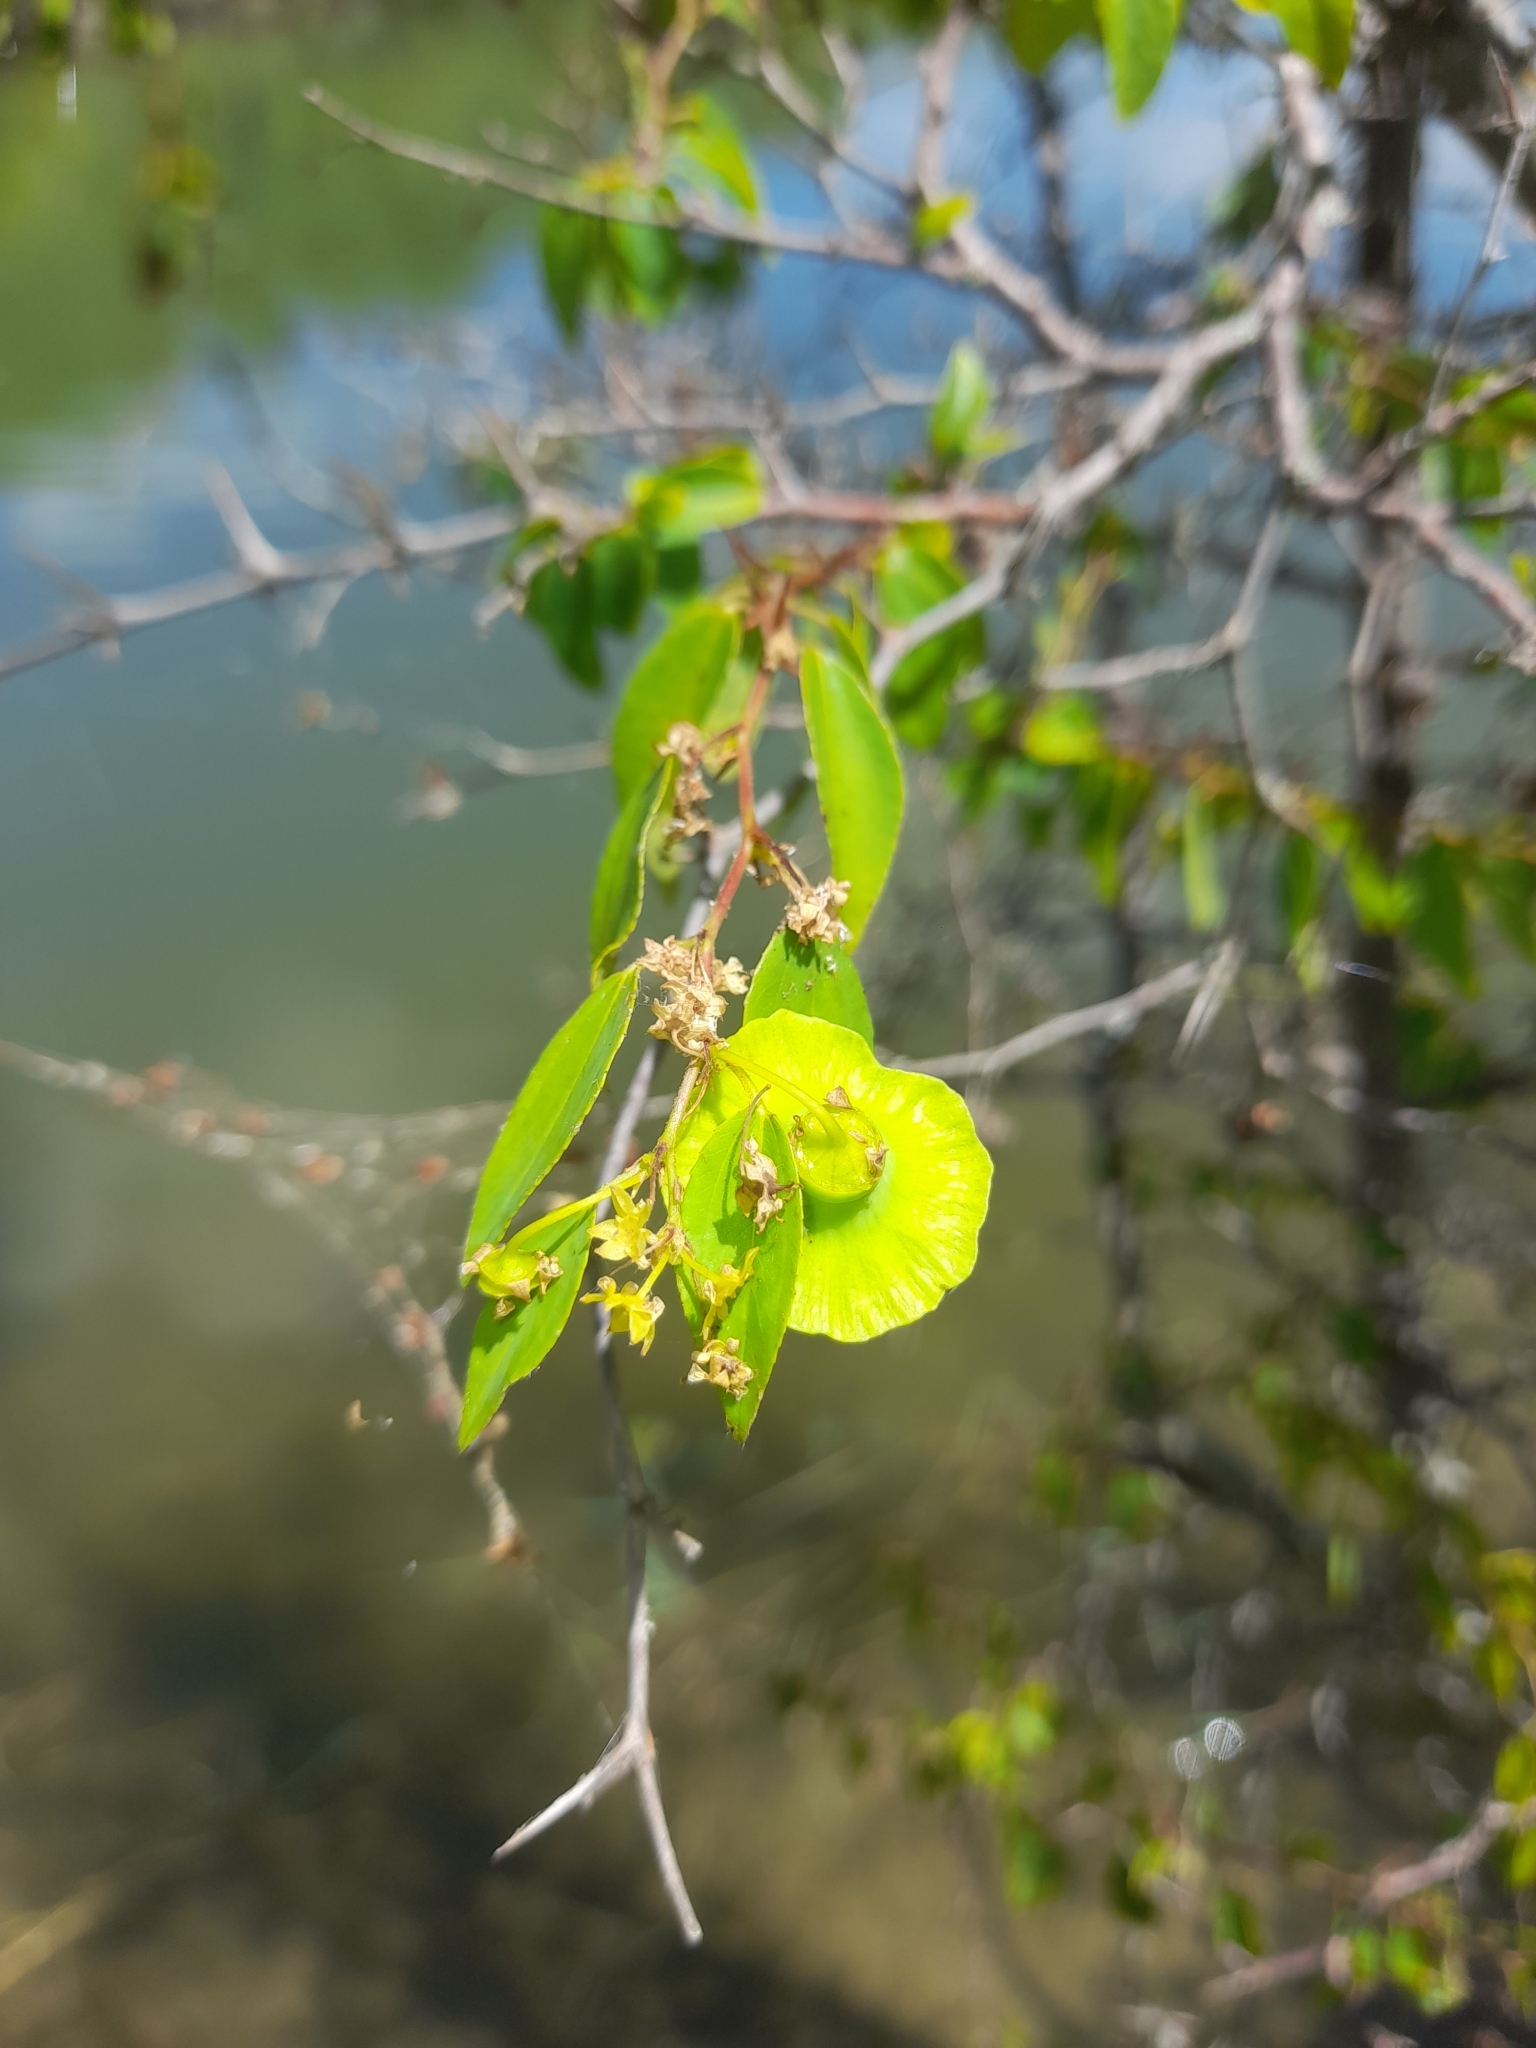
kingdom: Plantae
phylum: Tracheophyta
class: Magnoliopsida
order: Rosales
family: Rhamnaceae
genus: Paliurus
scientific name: Paliurus spina-christi
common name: Jeruselem thorn
